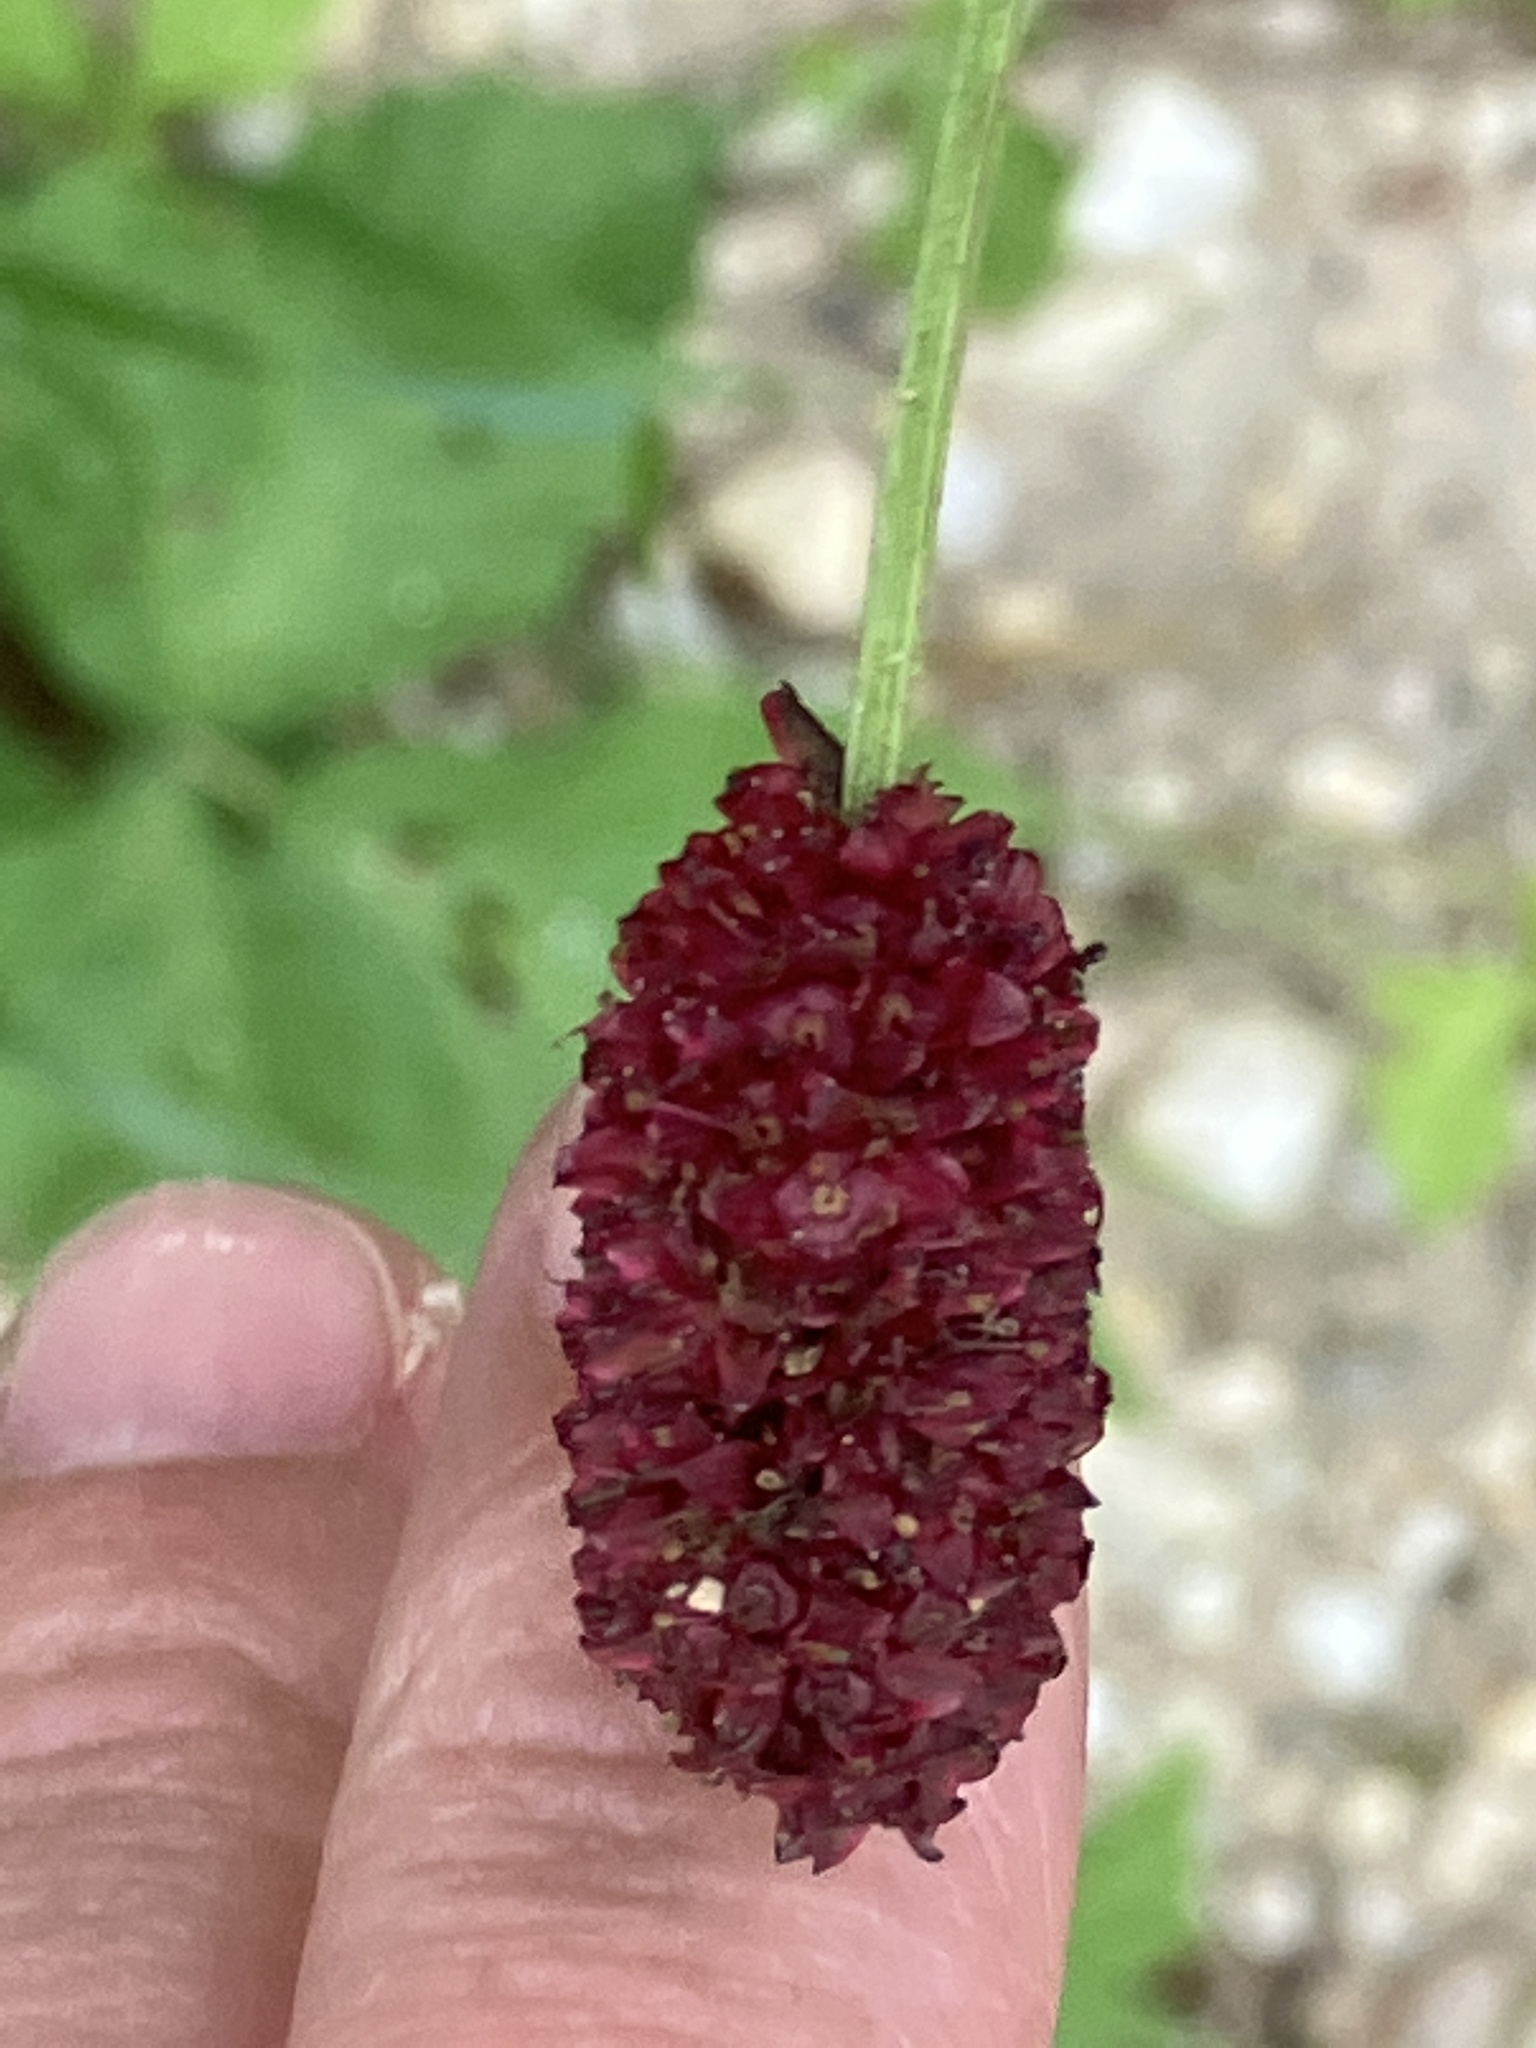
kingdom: Plantae
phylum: Tracheophyta
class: Magnoliopsida
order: Rosales
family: Rosaceae
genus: Sanguisorba
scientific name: Sanguisorba officinalis
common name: Great burnet
